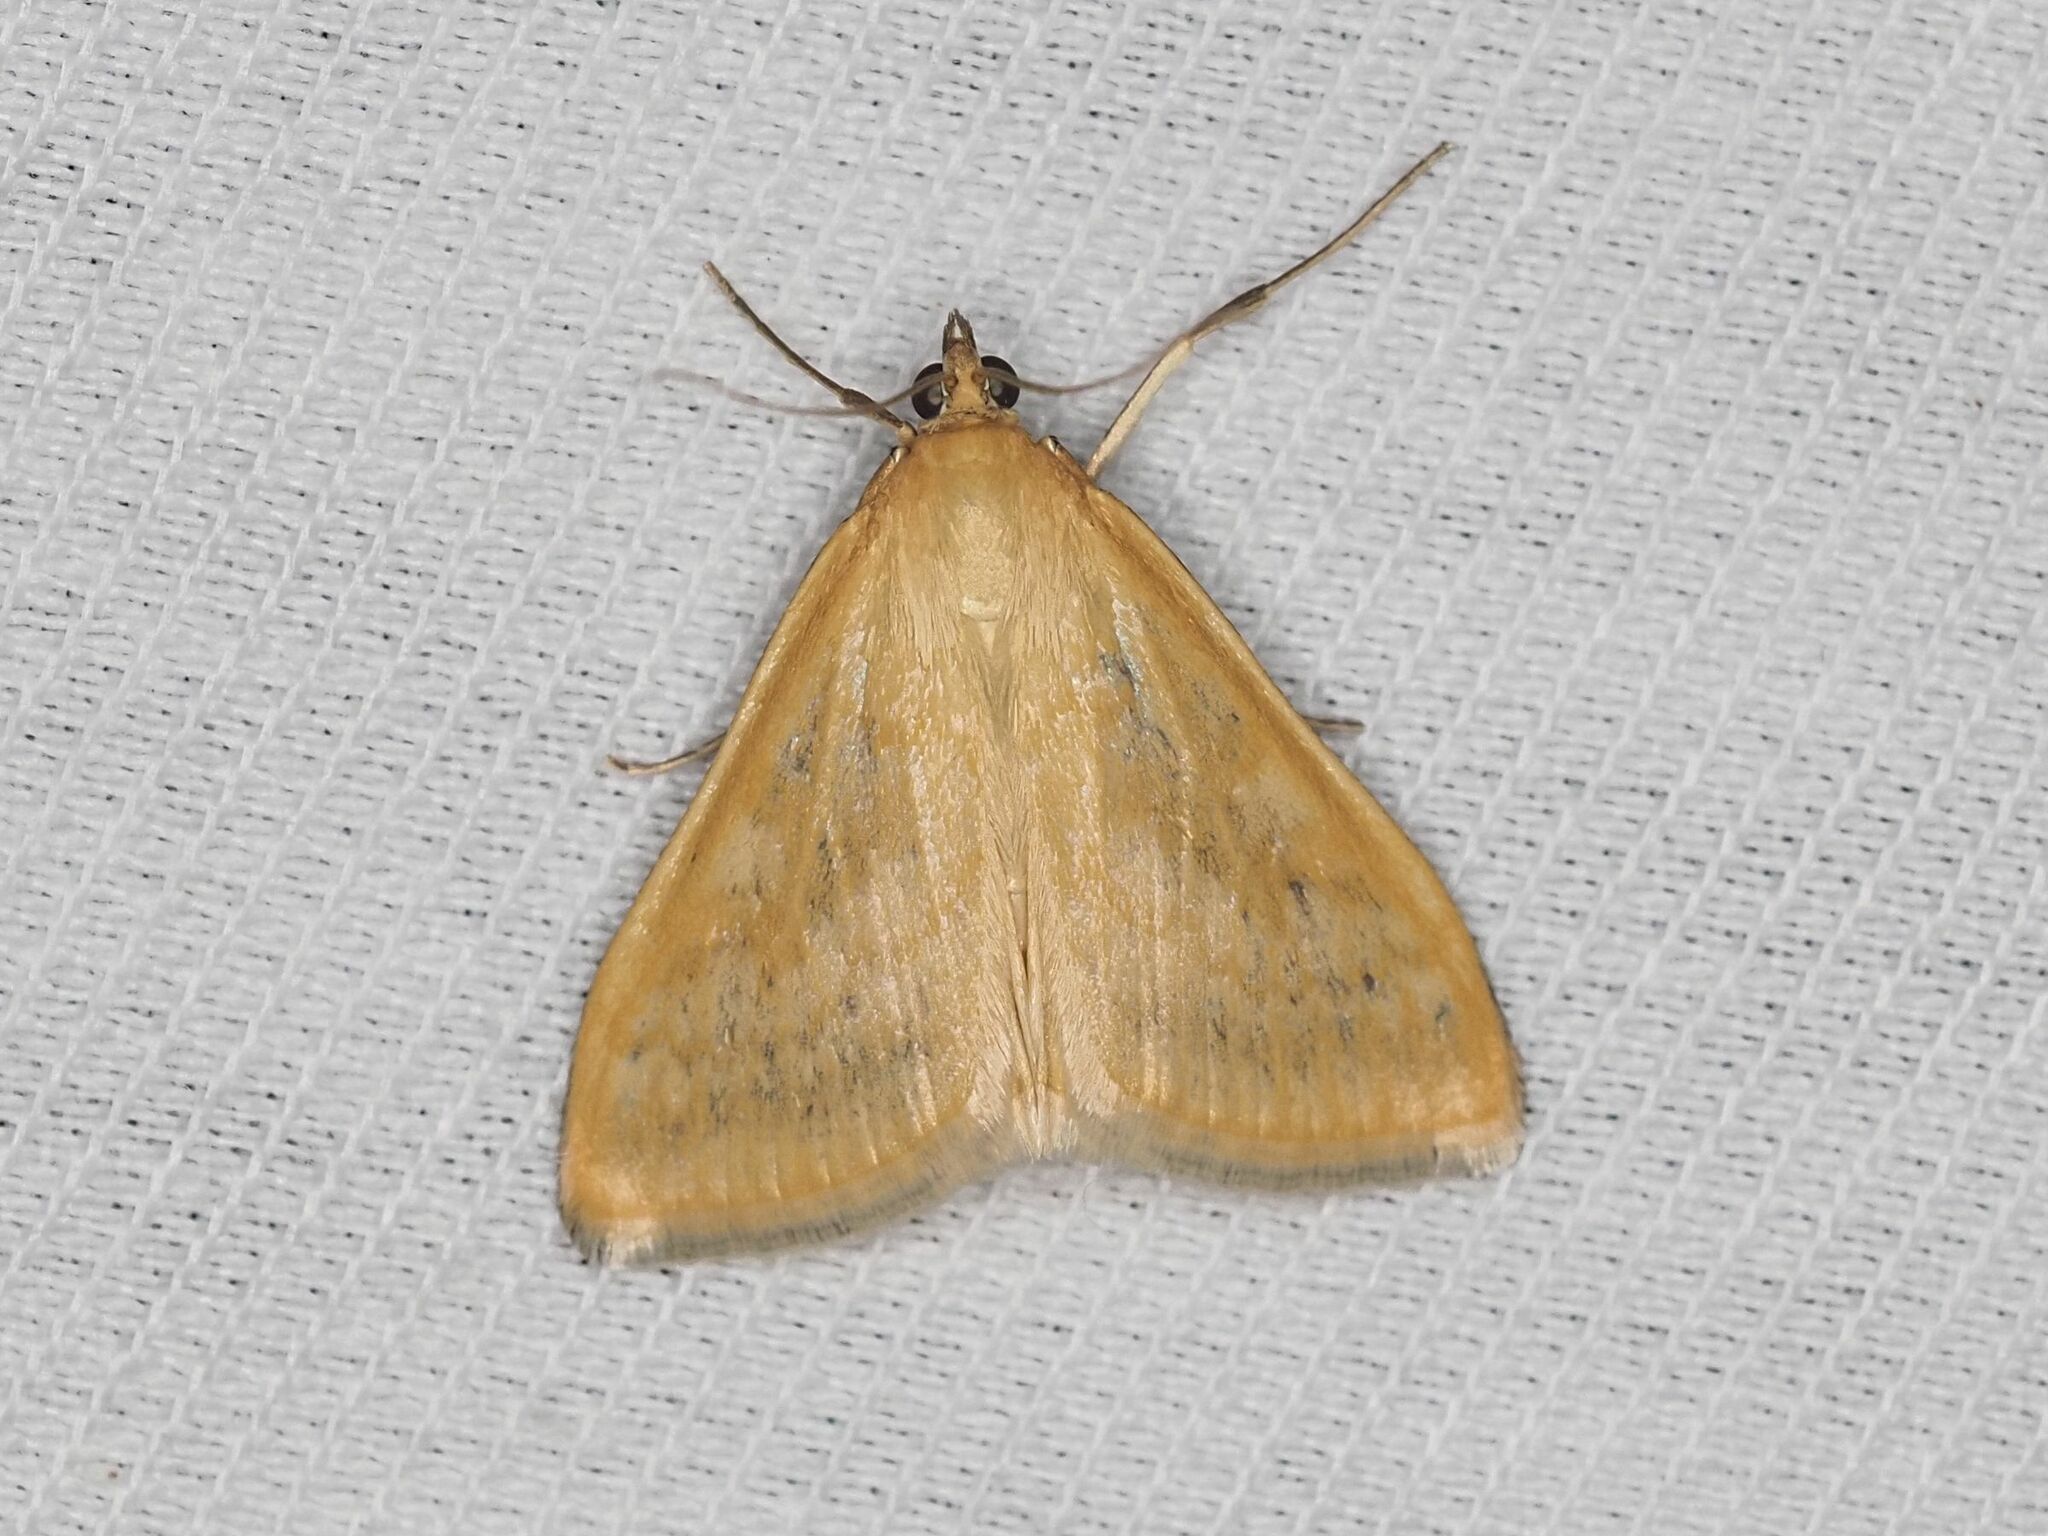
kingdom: Animalia
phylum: Arthropoda
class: Insecta
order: Lepidoptera
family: Crambidae
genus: Sitochroa
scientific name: Sitochroa verticalis
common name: Lesser pearl
